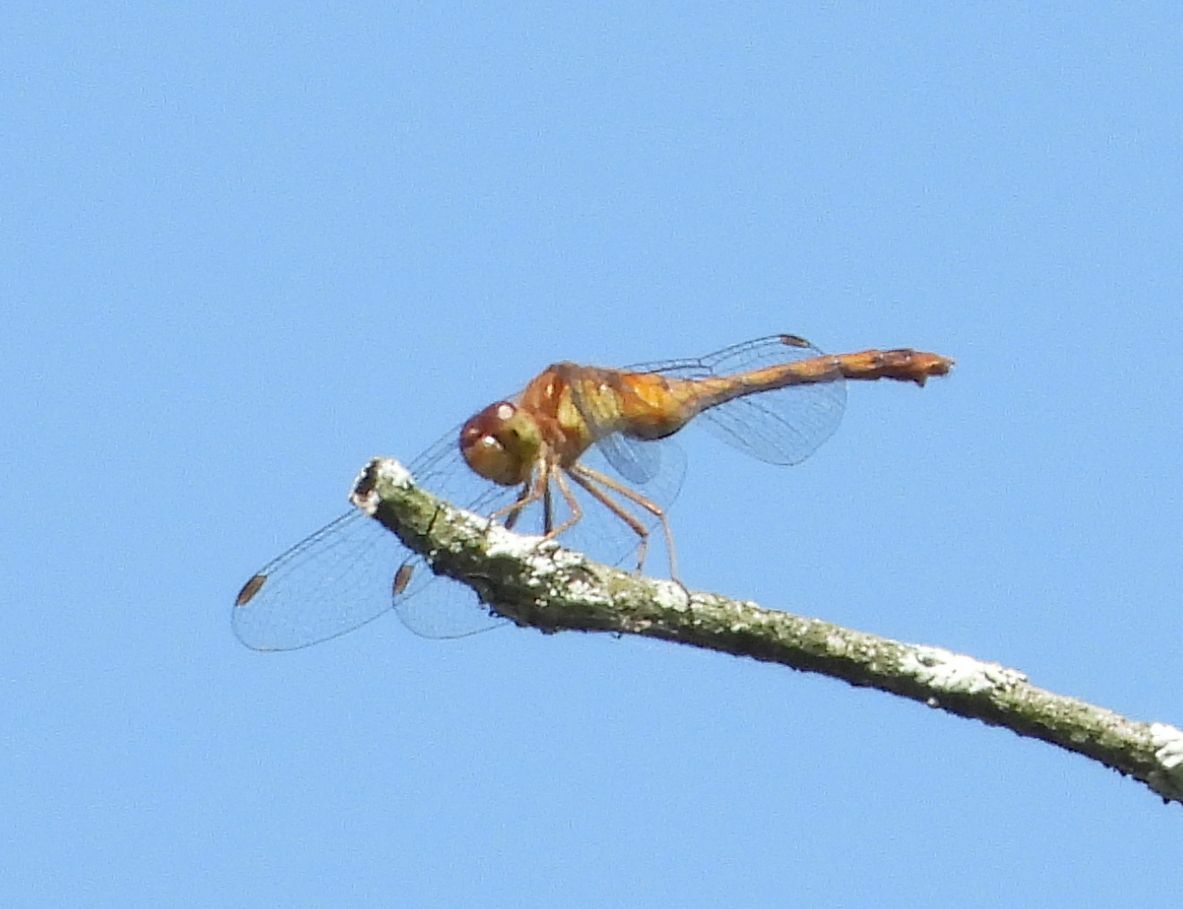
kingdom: Animalia
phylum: Arthropoda
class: Insecta
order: Odonata
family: Libellulidae
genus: Sympetrum
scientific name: Sympetrum vicinum
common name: Autumn meadowhawk
